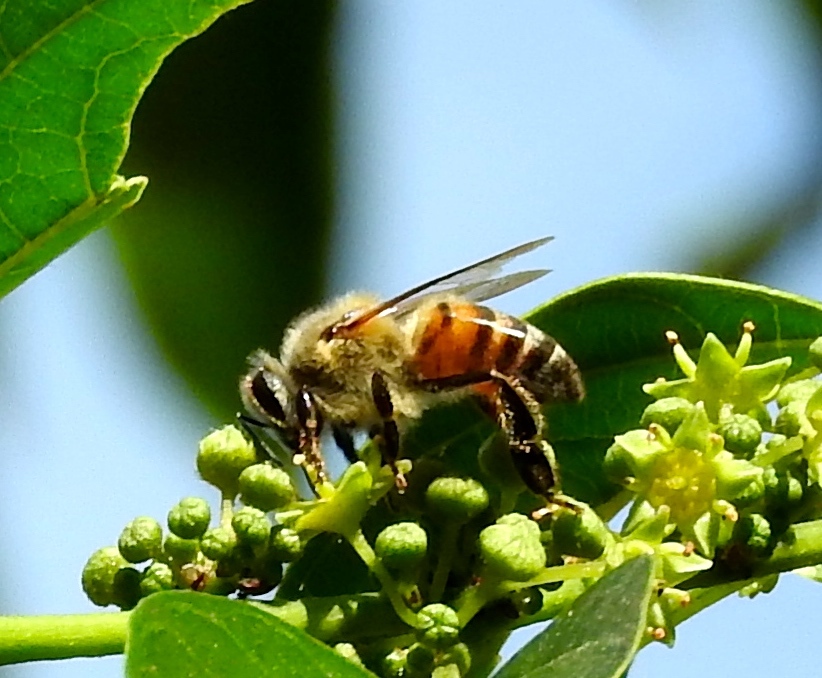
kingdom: Animalia
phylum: Arthropoda
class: Insecta
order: Hymenoptera
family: Apidae
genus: Apis
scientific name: Apis mellifera
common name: Honey bee
